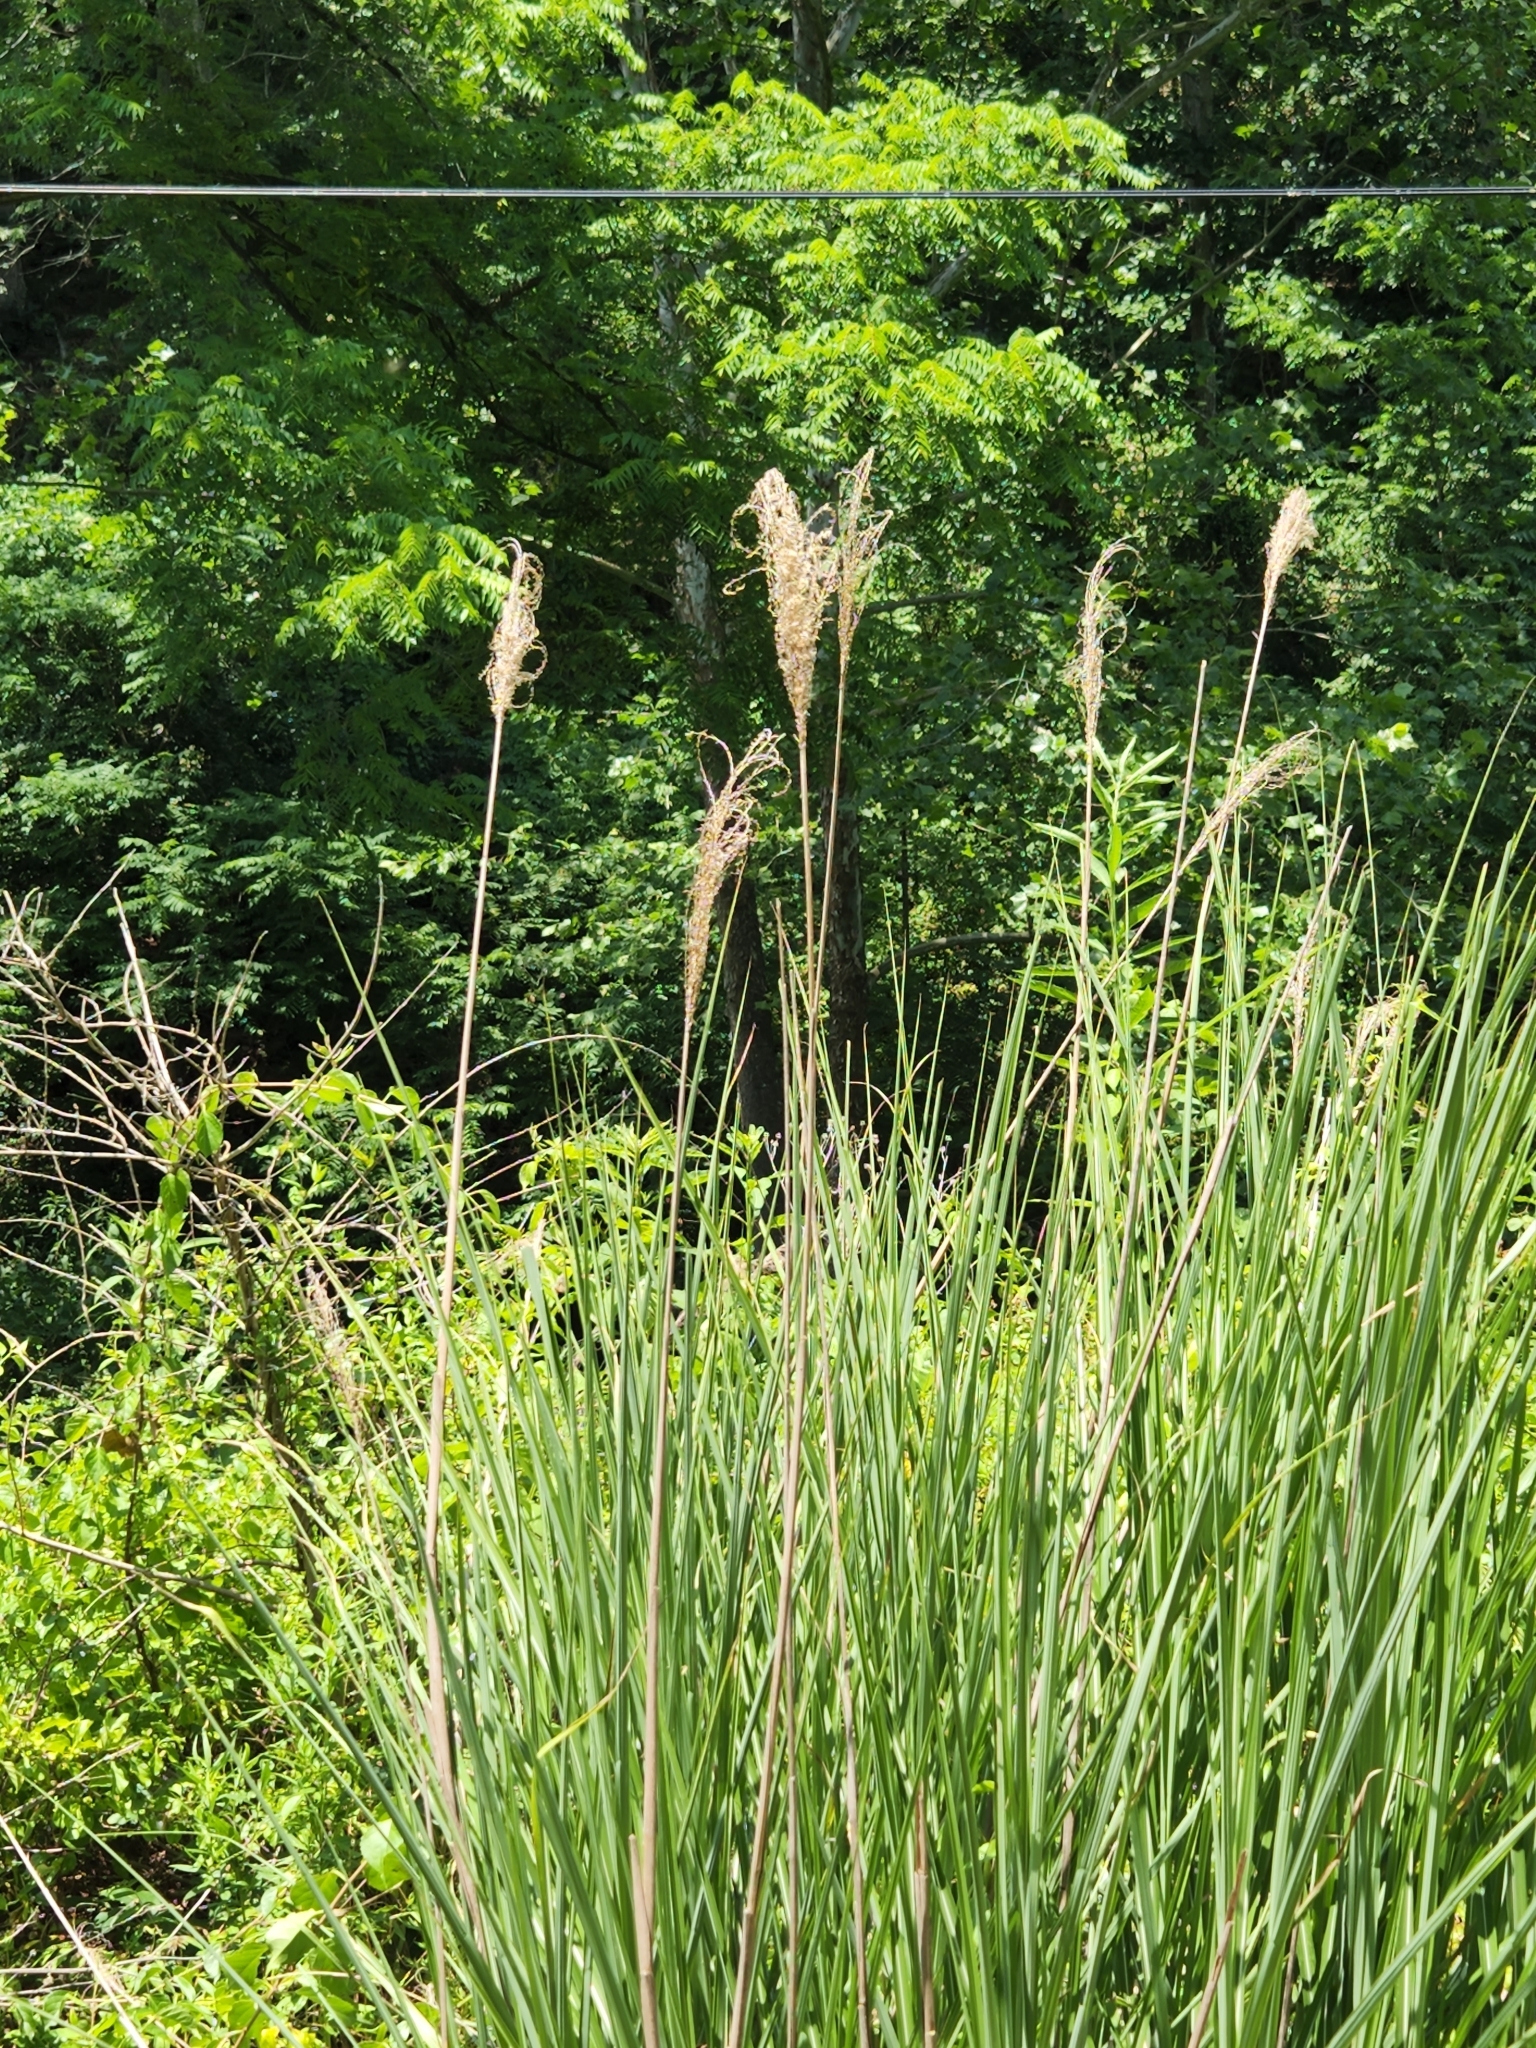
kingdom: Plantae
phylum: Tracheophyta
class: Liliopsida
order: Poales
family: Poaceae
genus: Miscanthus
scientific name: Miscanthus sinensis
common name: Chinese silvergrass
